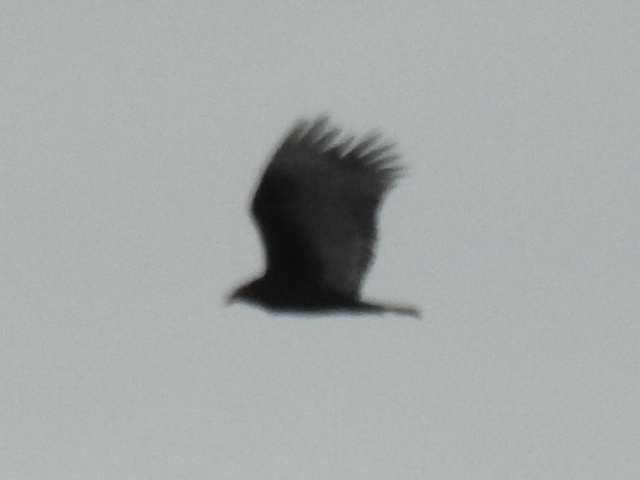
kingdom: Animalia
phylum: Chordata
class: Aves
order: Accipitriformes
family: Cathartidae
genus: Cathartes
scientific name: Cathartes aura
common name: Turkey vulture
